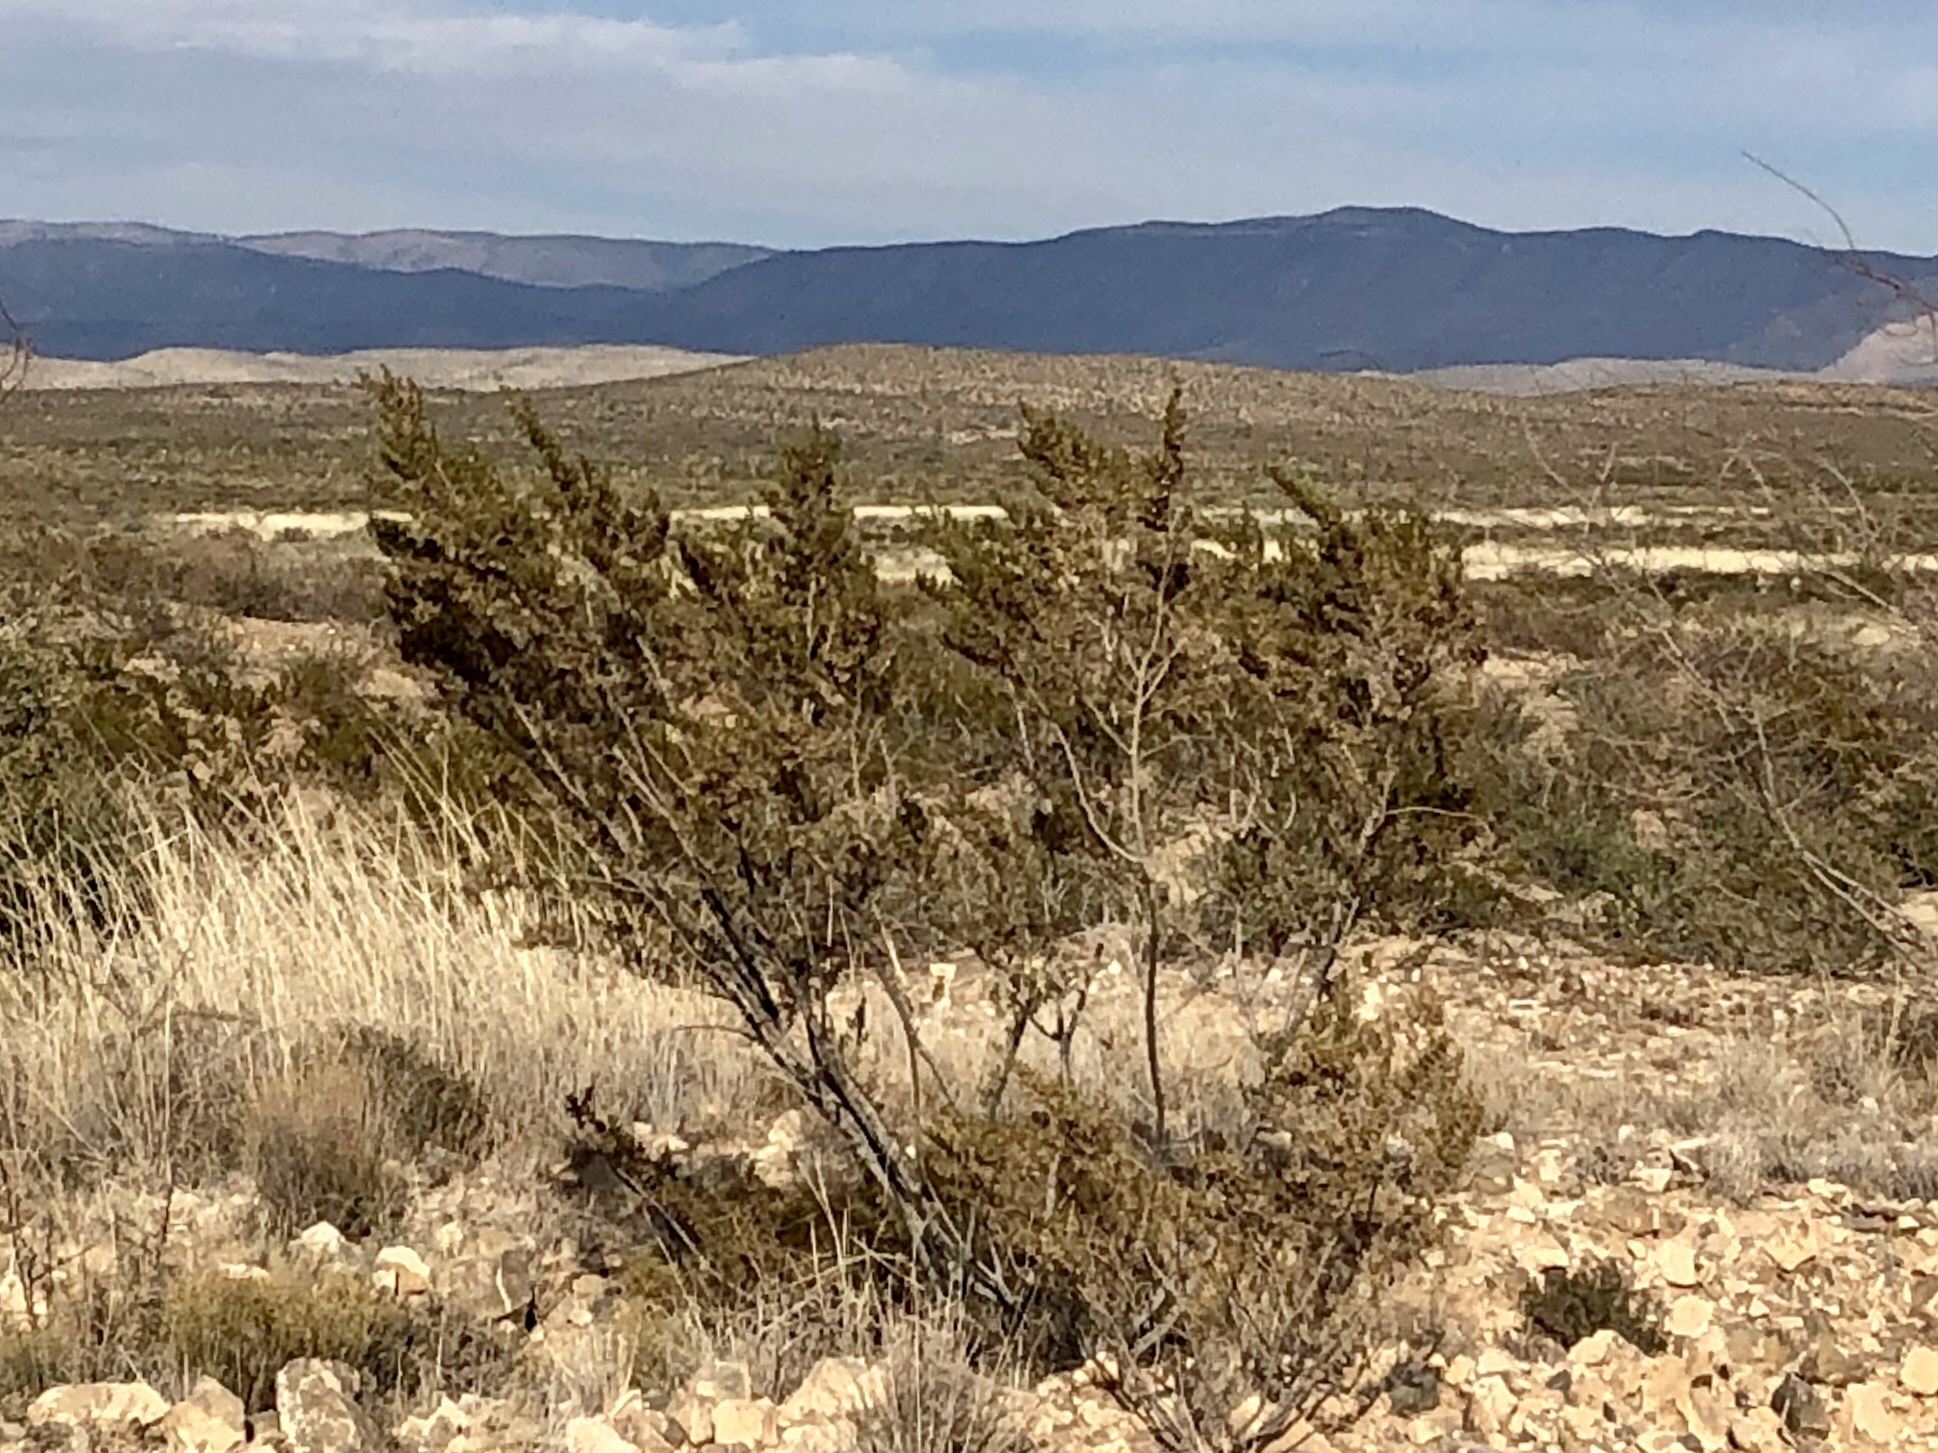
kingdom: Plantae
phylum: Tracheophyta
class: Magnoliopsida
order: Zygophyllales
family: Zygophyllaceae
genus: Larrea
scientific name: Larrea tridentata
